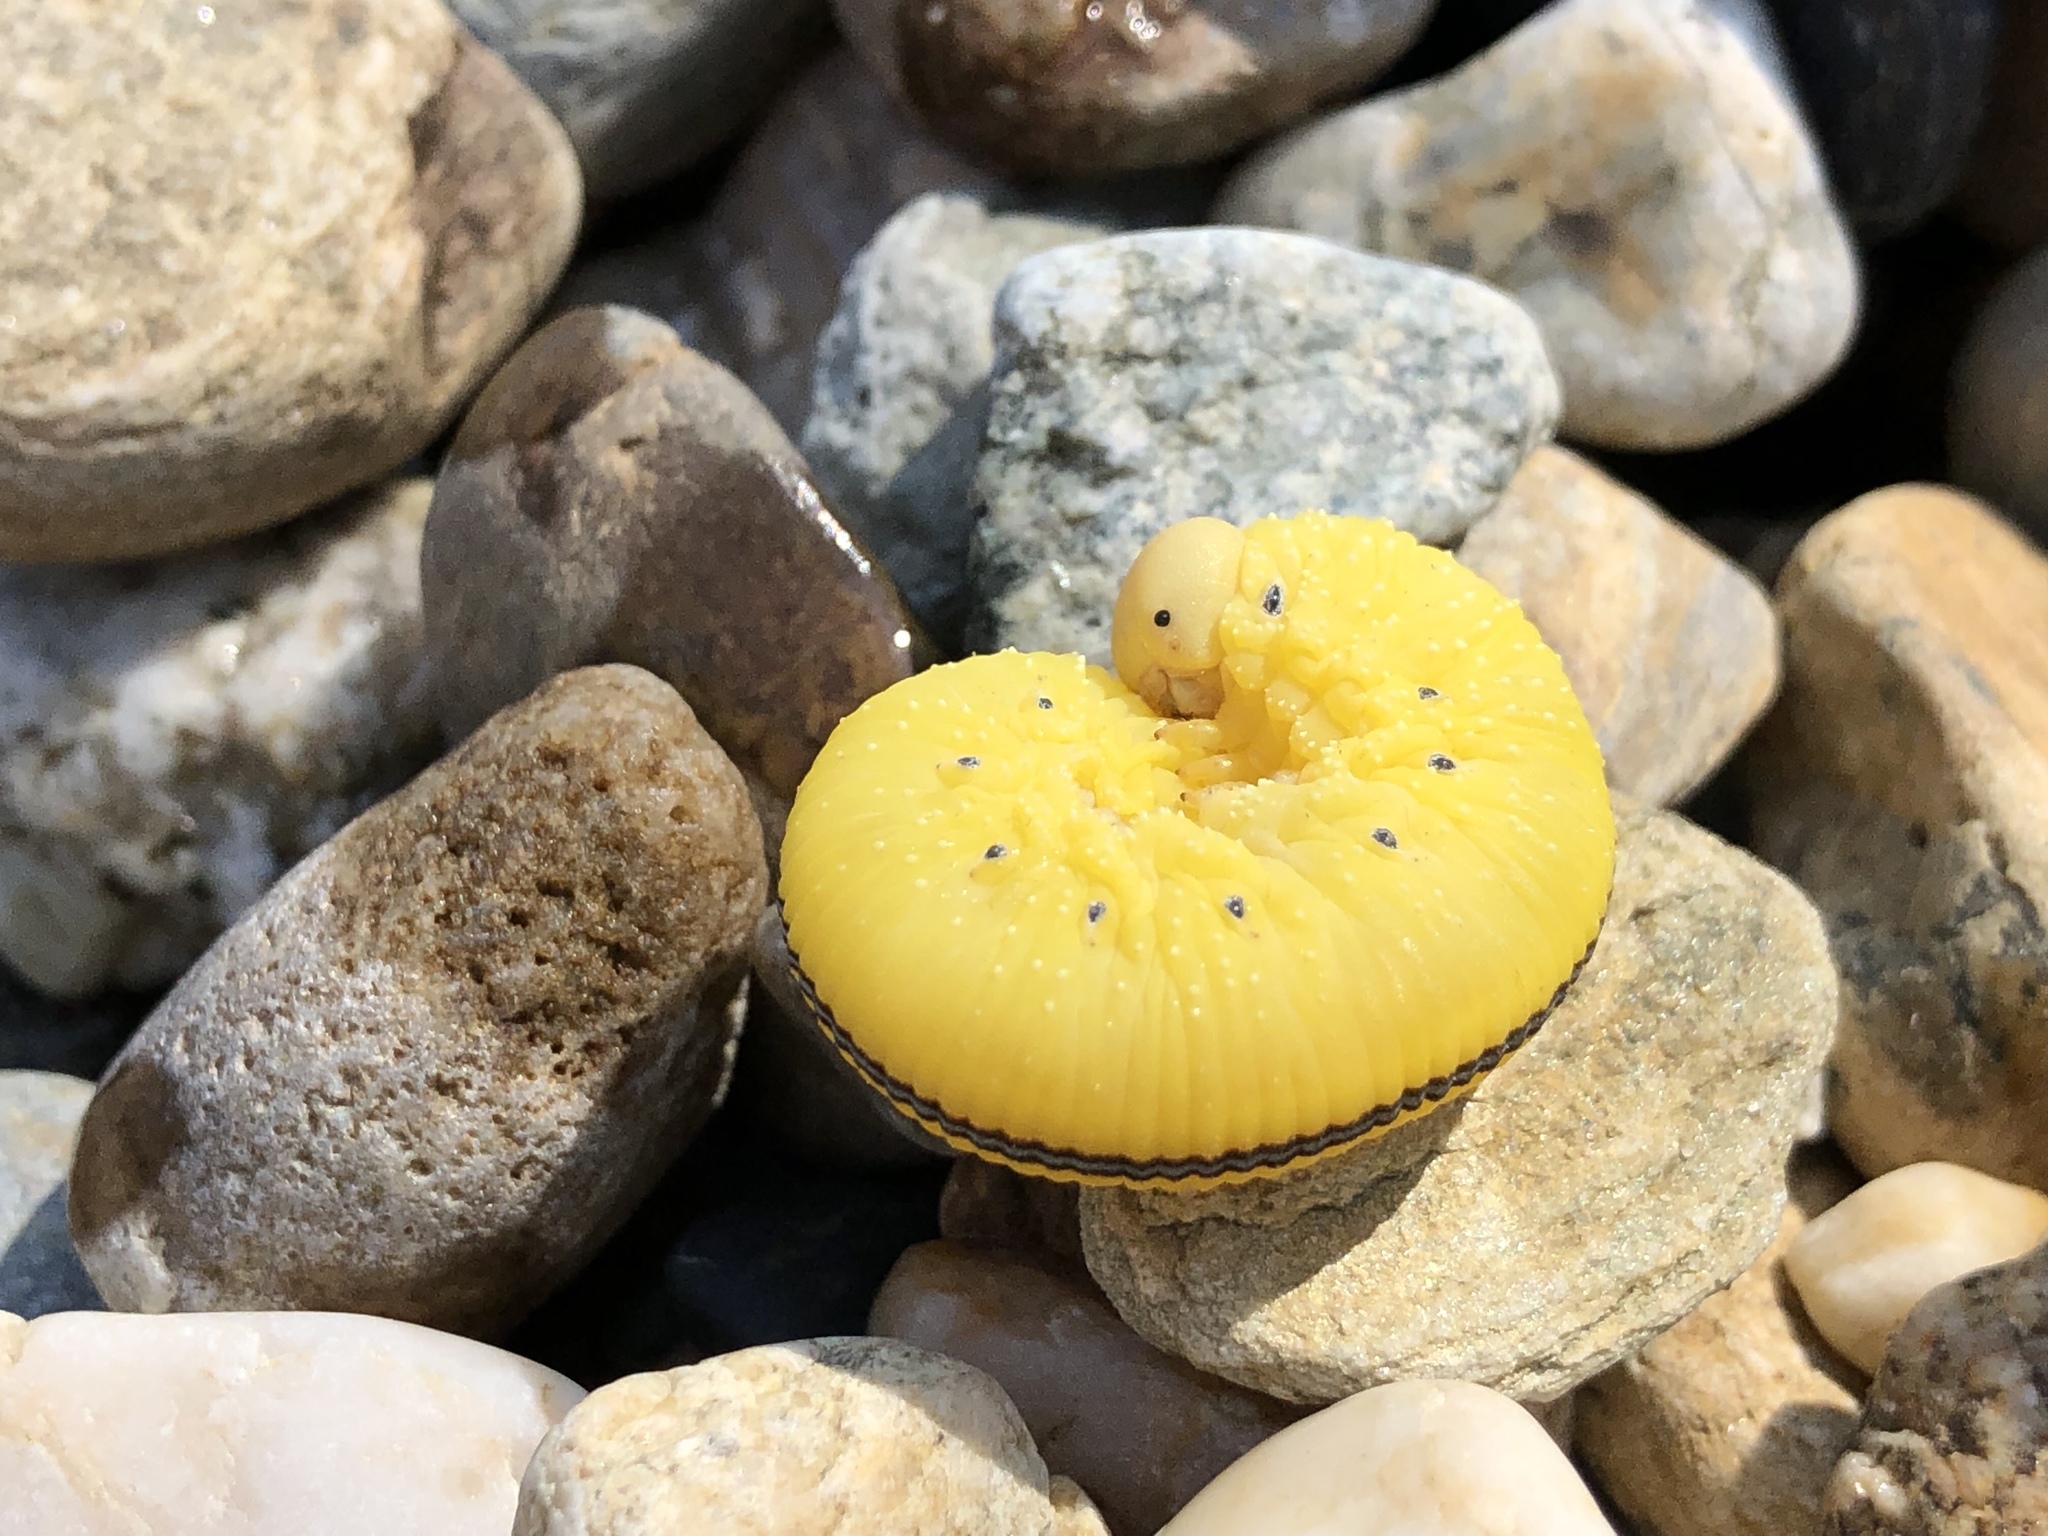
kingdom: Animalia
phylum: Arthropoda
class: Insecta
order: Hymenoptera
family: Cimbicidae
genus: Cimbex
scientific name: Cimbex americana
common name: Elm sawfly
